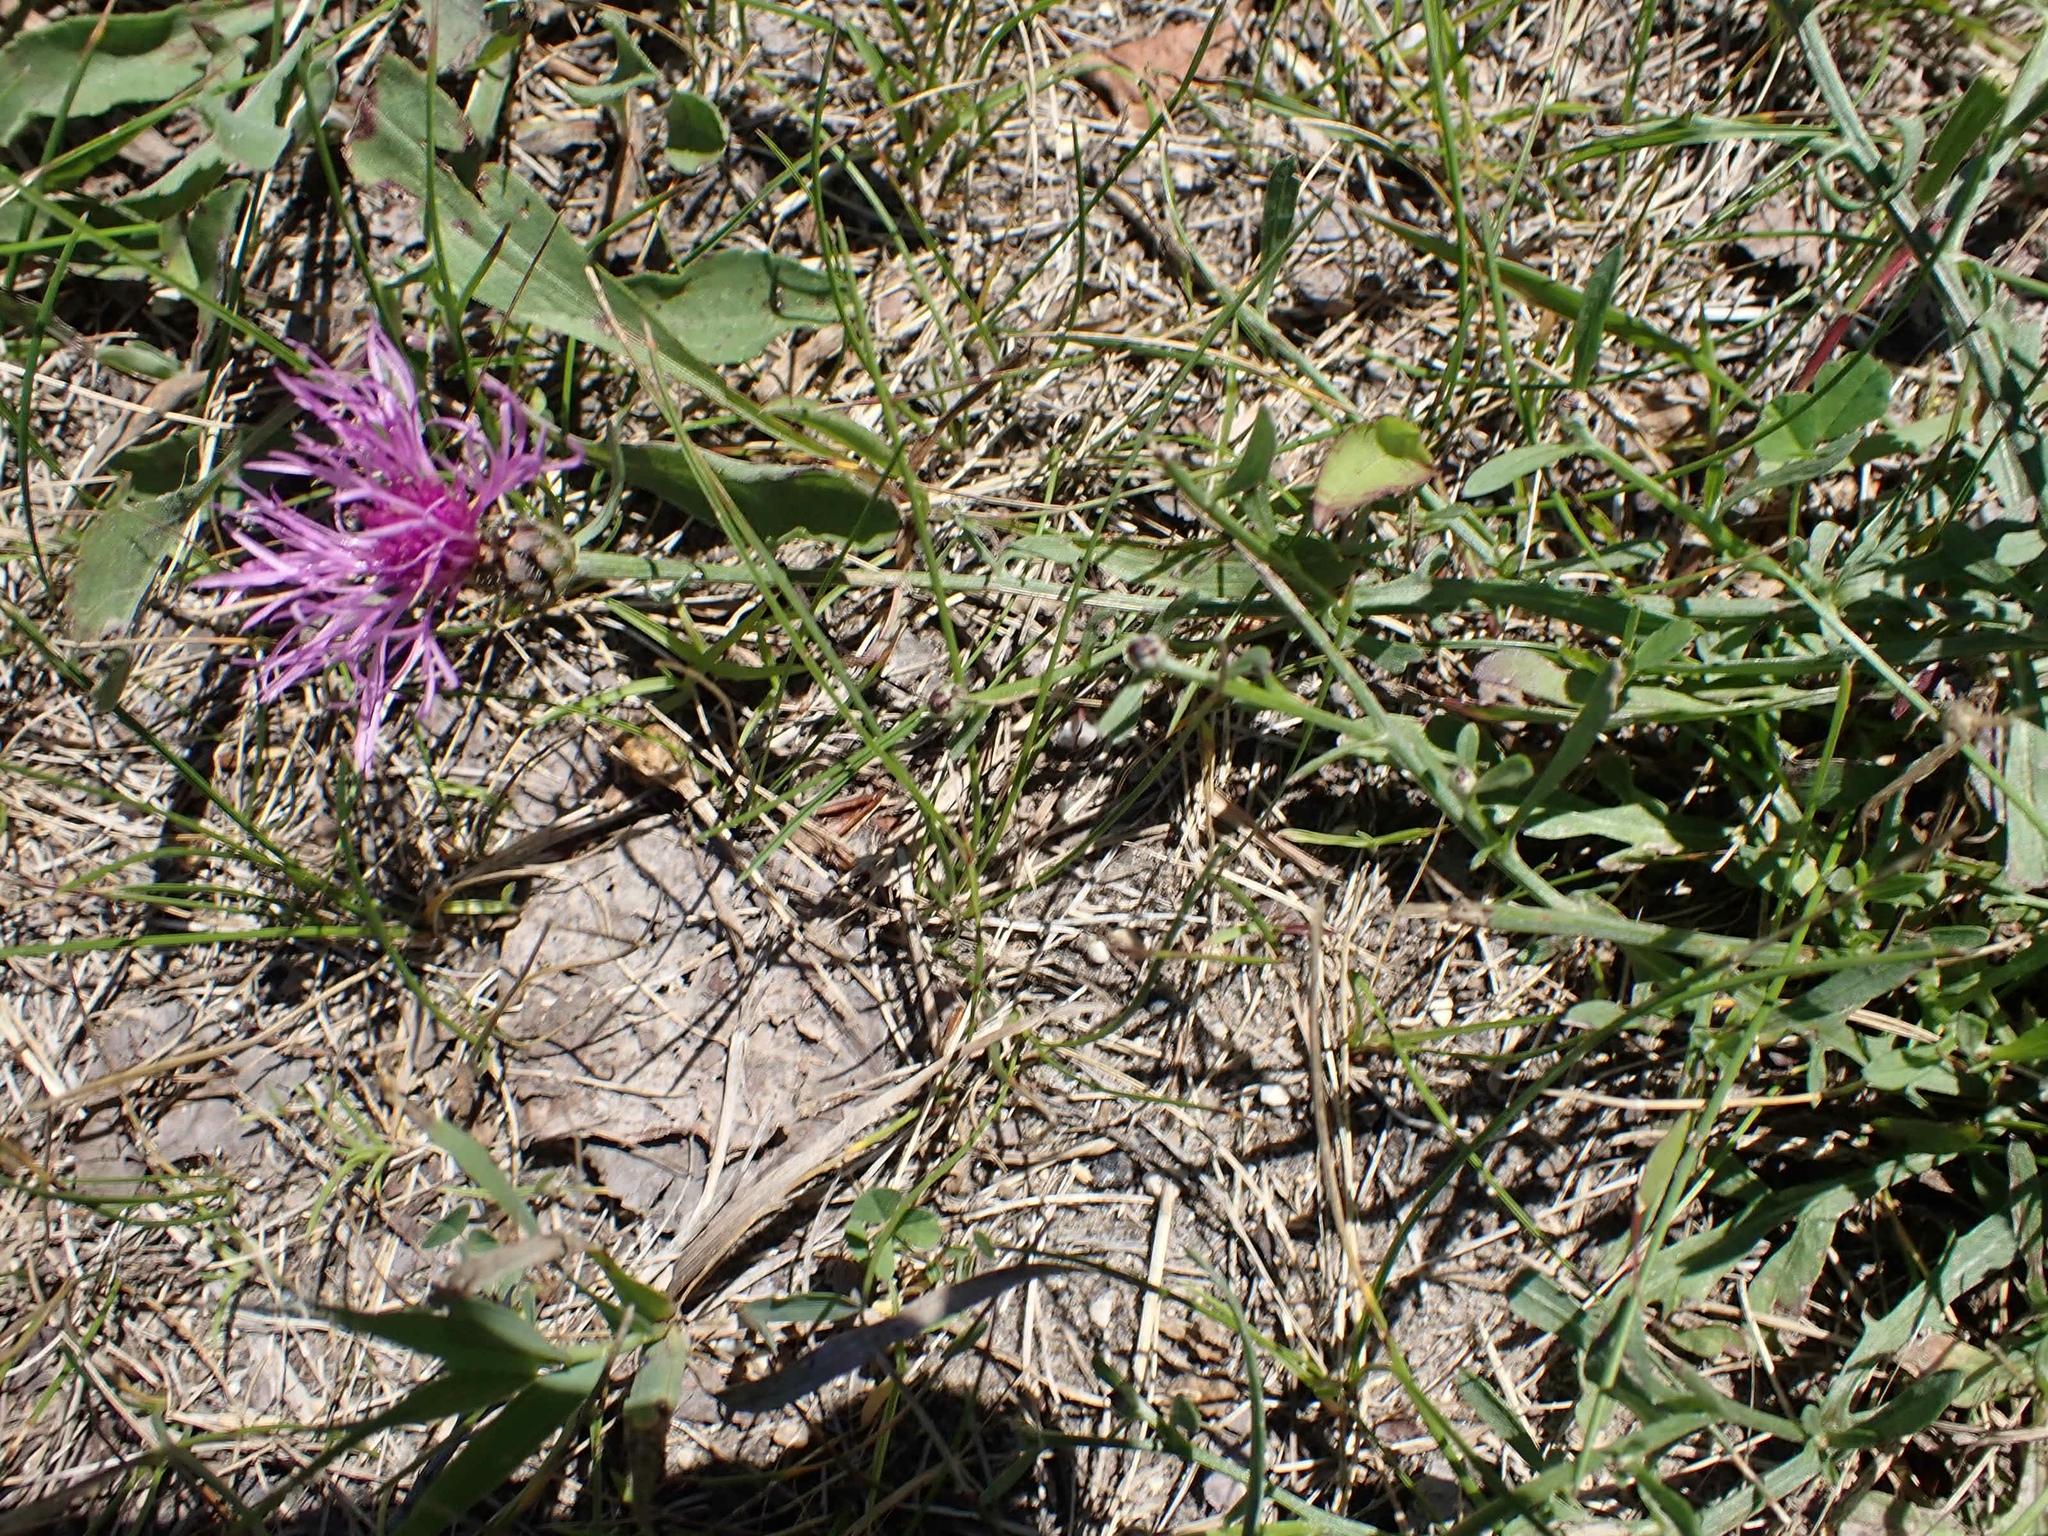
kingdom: Plantae
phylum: Tracheophyta
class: Magnoliopsida
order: Asterales
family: Asteraceae
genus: Centaurea
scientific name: Centaurea stoebe
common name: Spotted knapweed
